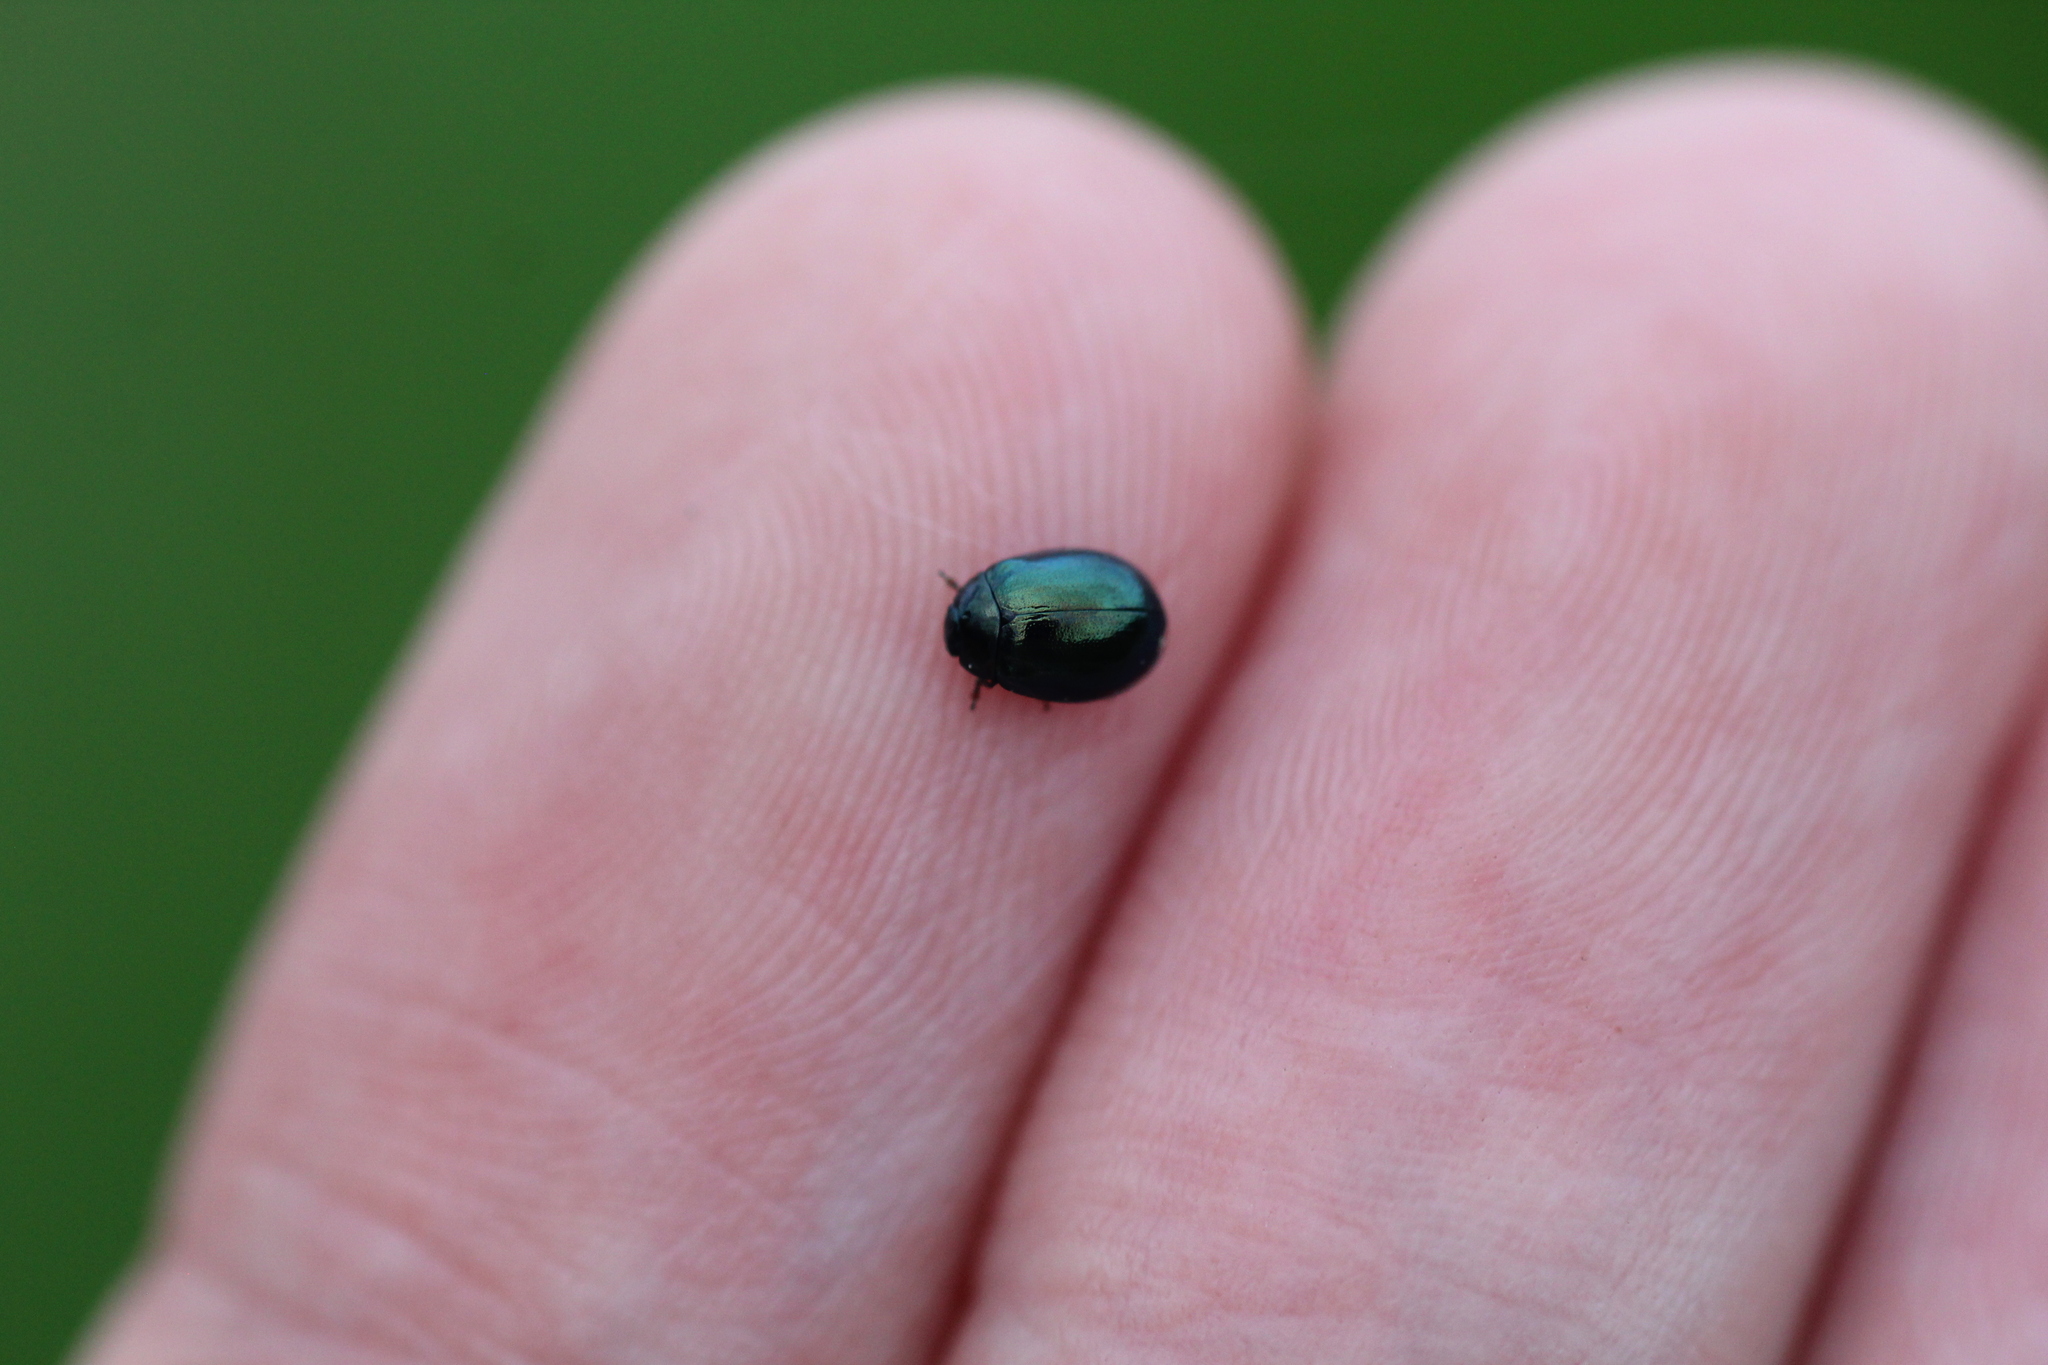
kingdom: Animalia
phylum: Arthropoda
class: Insecta
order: Coleoptera
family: Chrysomelidae
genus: Plagiodera
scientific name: Plagiodera versicolora
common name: Imported willow leaf beetle
